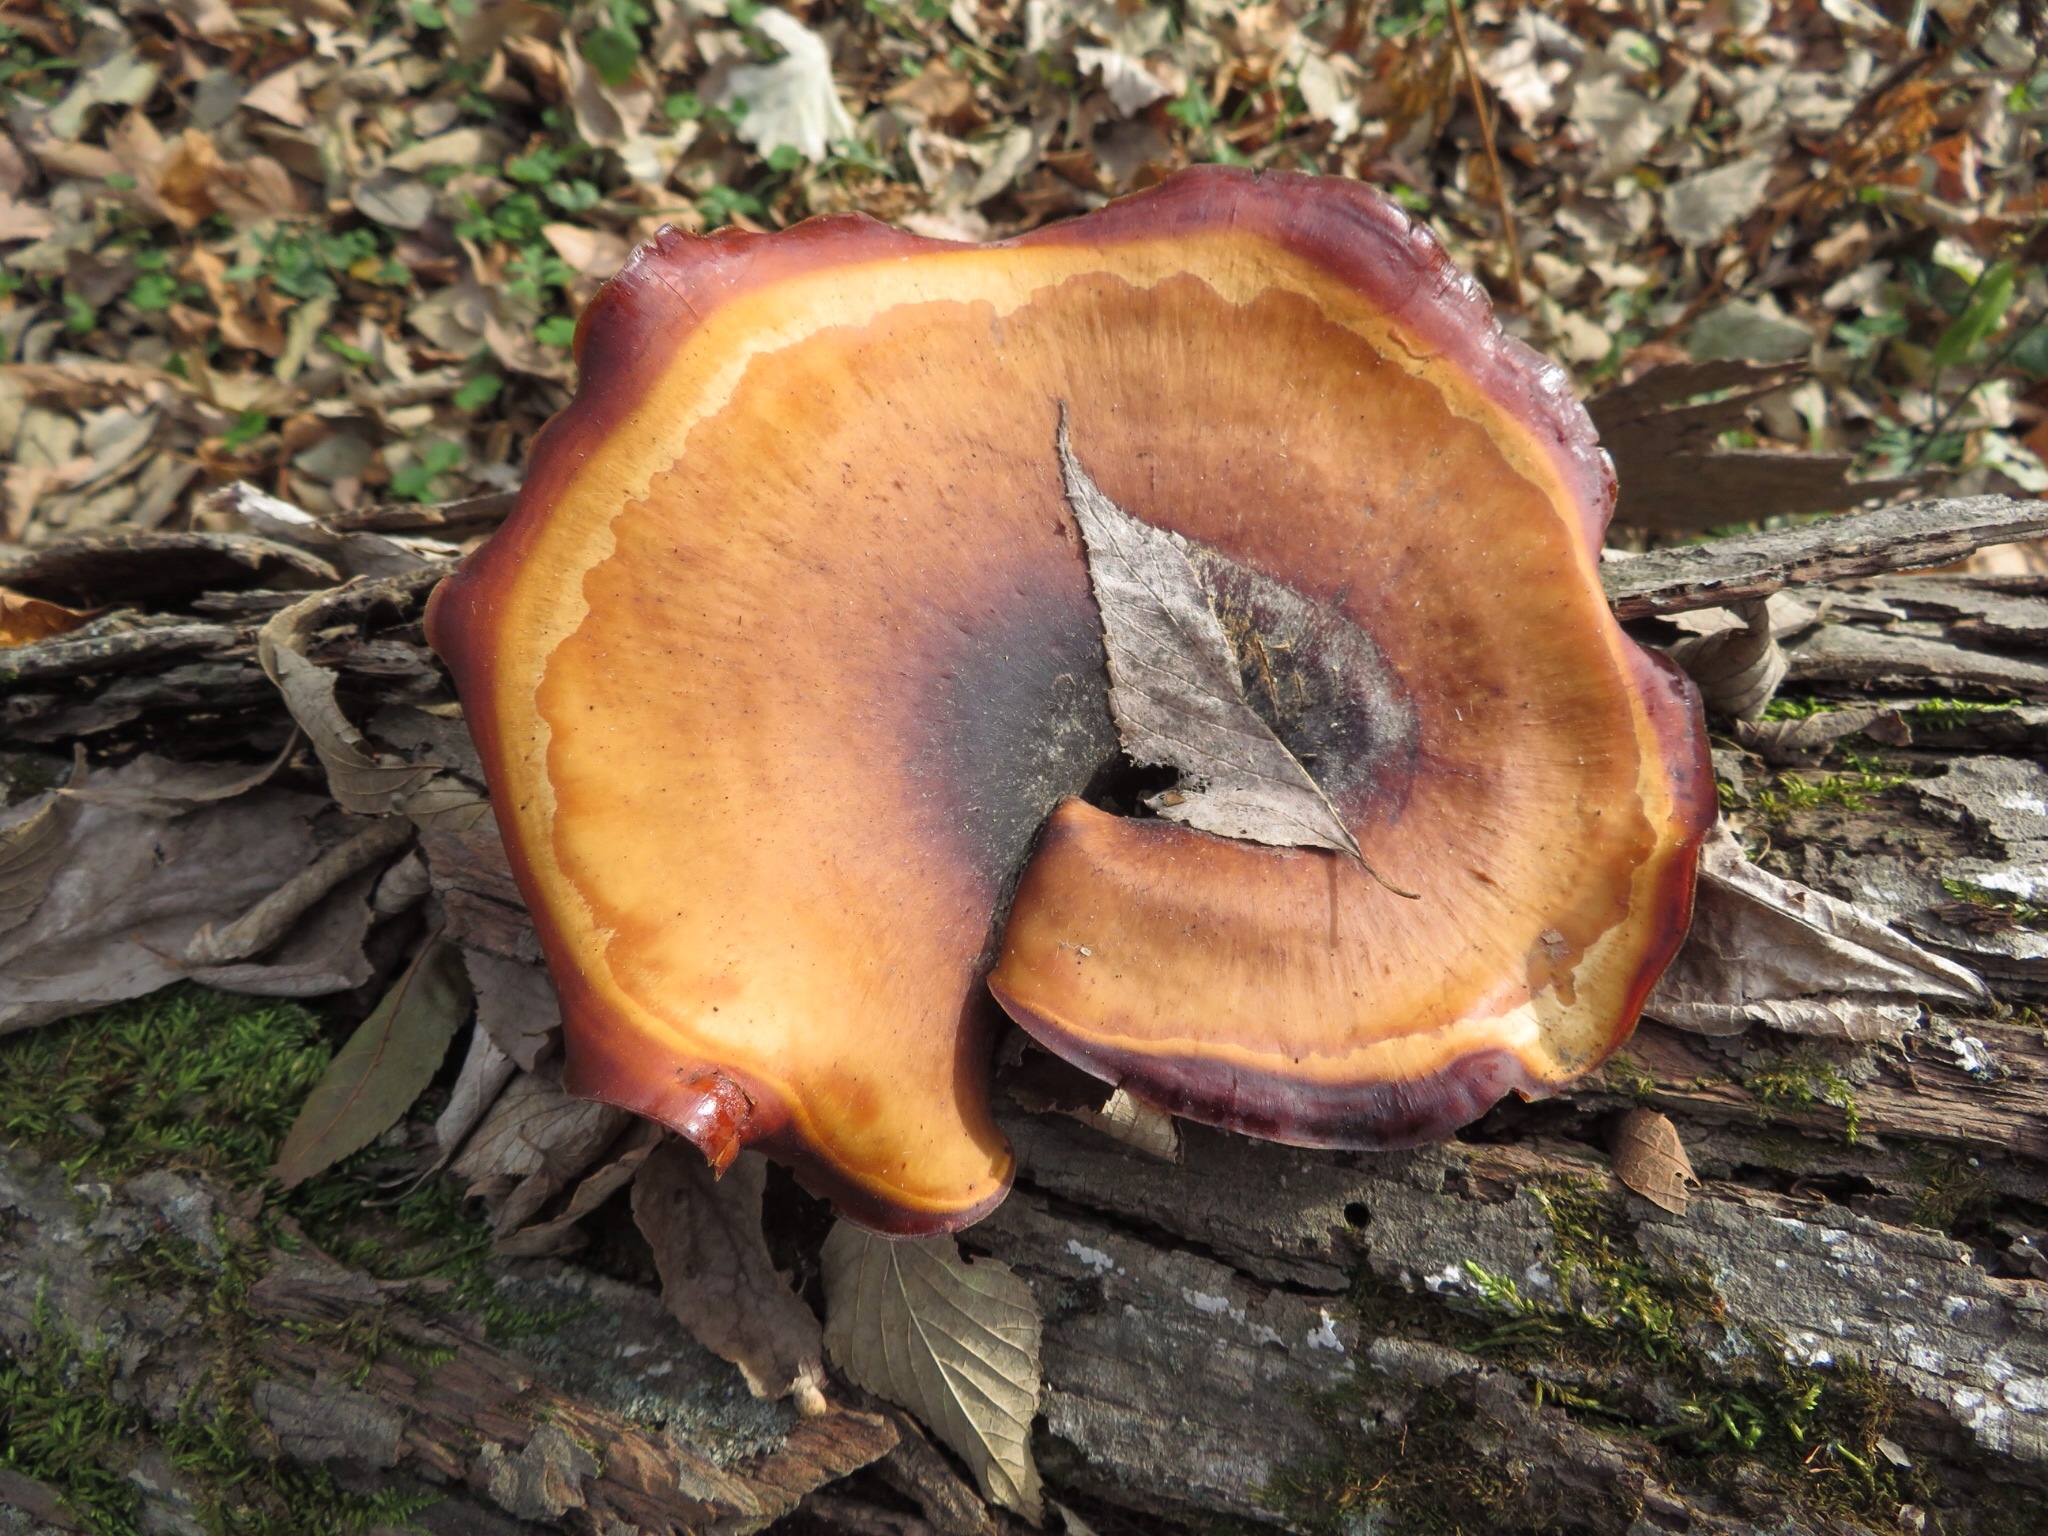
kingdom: Fungi
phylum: Basidiomycota
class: Agaricomycetes
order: Polyporales
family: Polyporaceae
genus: Picipes
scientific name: Picipes badius
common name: Bay polypore
